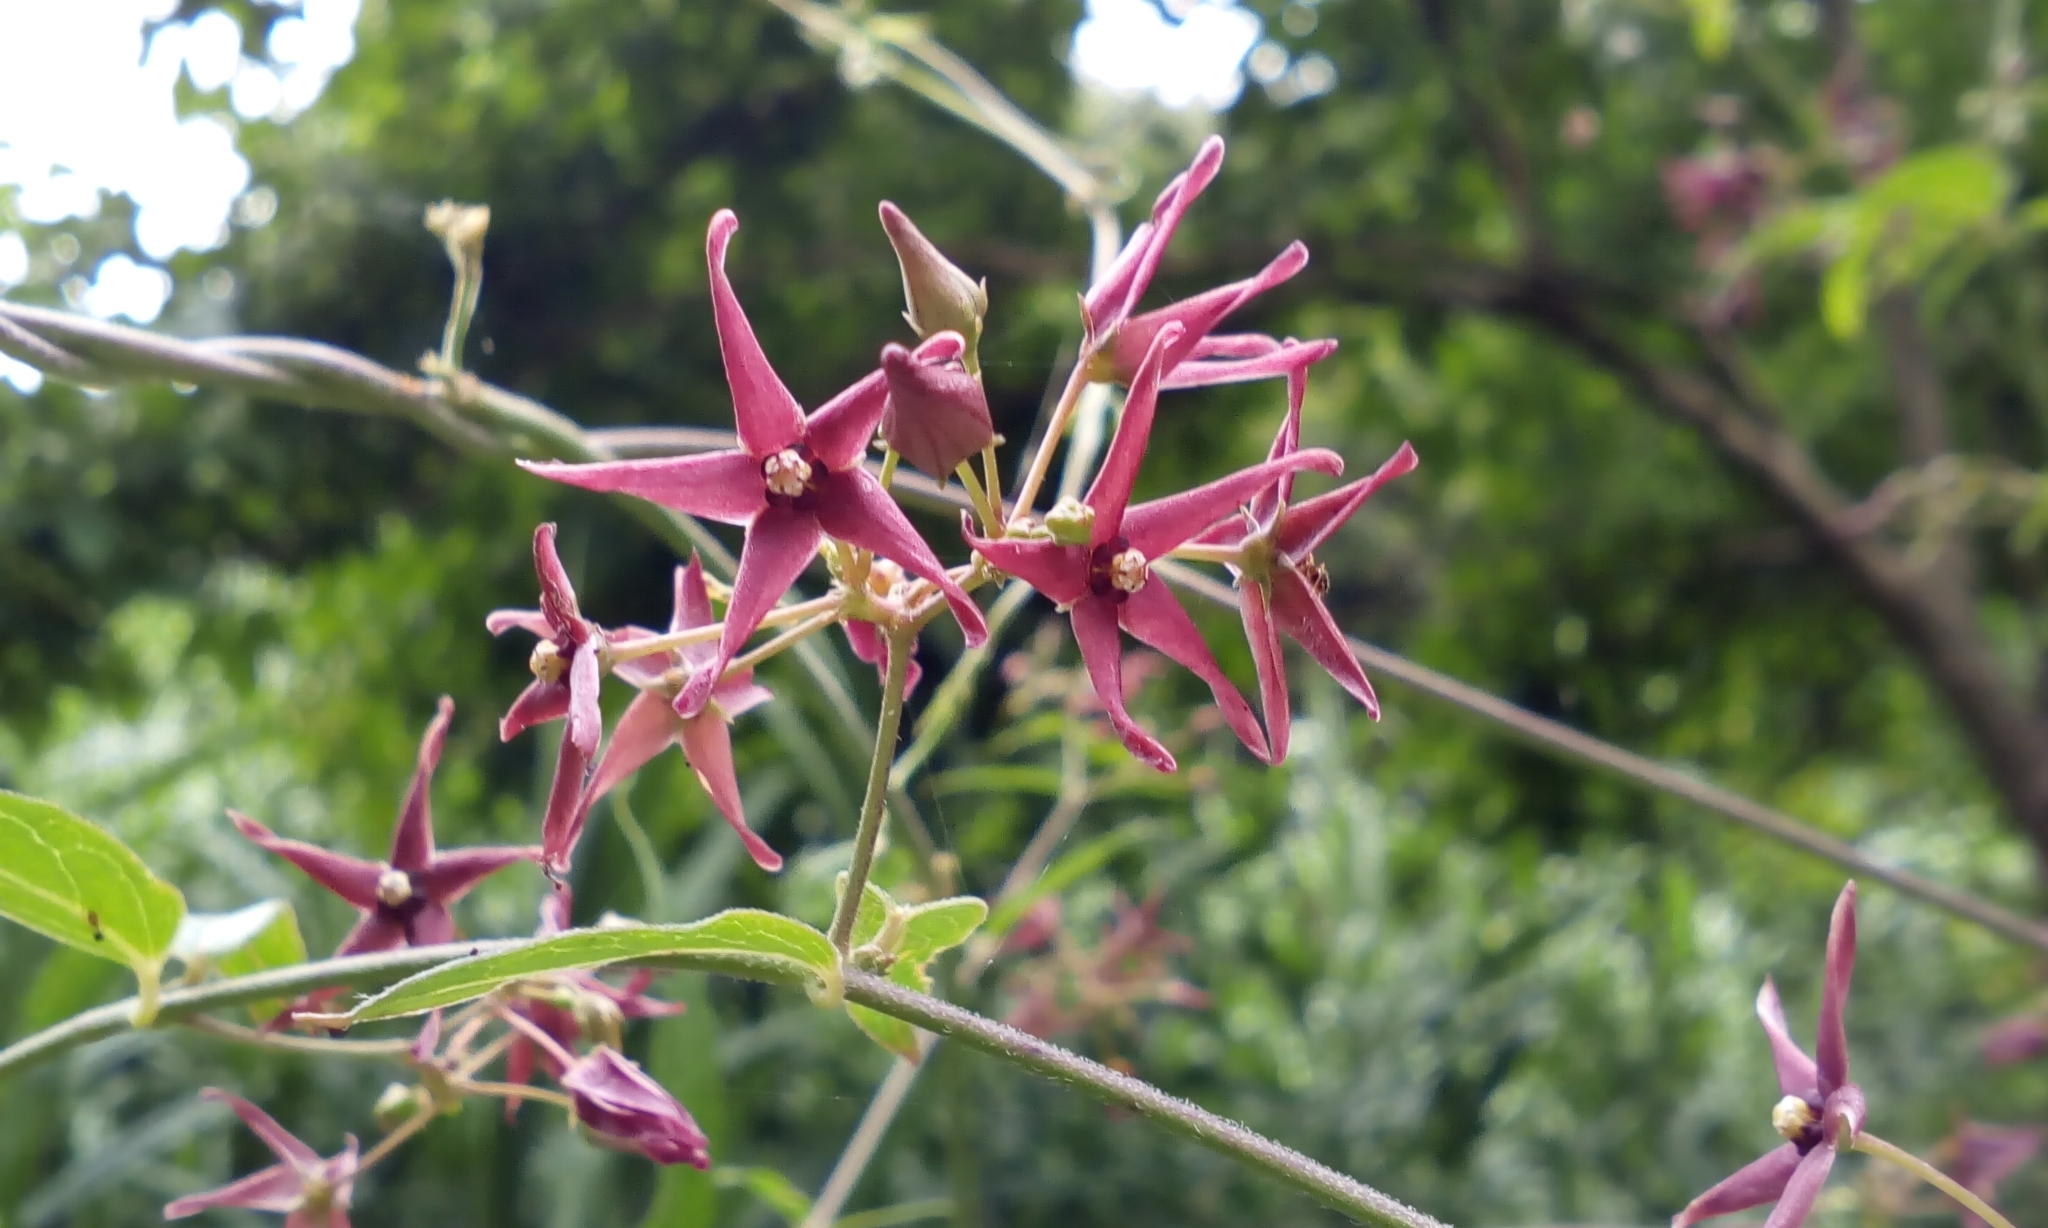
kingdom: Plantae
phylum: Tracheophyta
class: Magnoliopsida
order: Gentianales
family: Apocynaceae
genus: Vincetoxicum
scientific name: Vincetoxicum sublanceolatum
